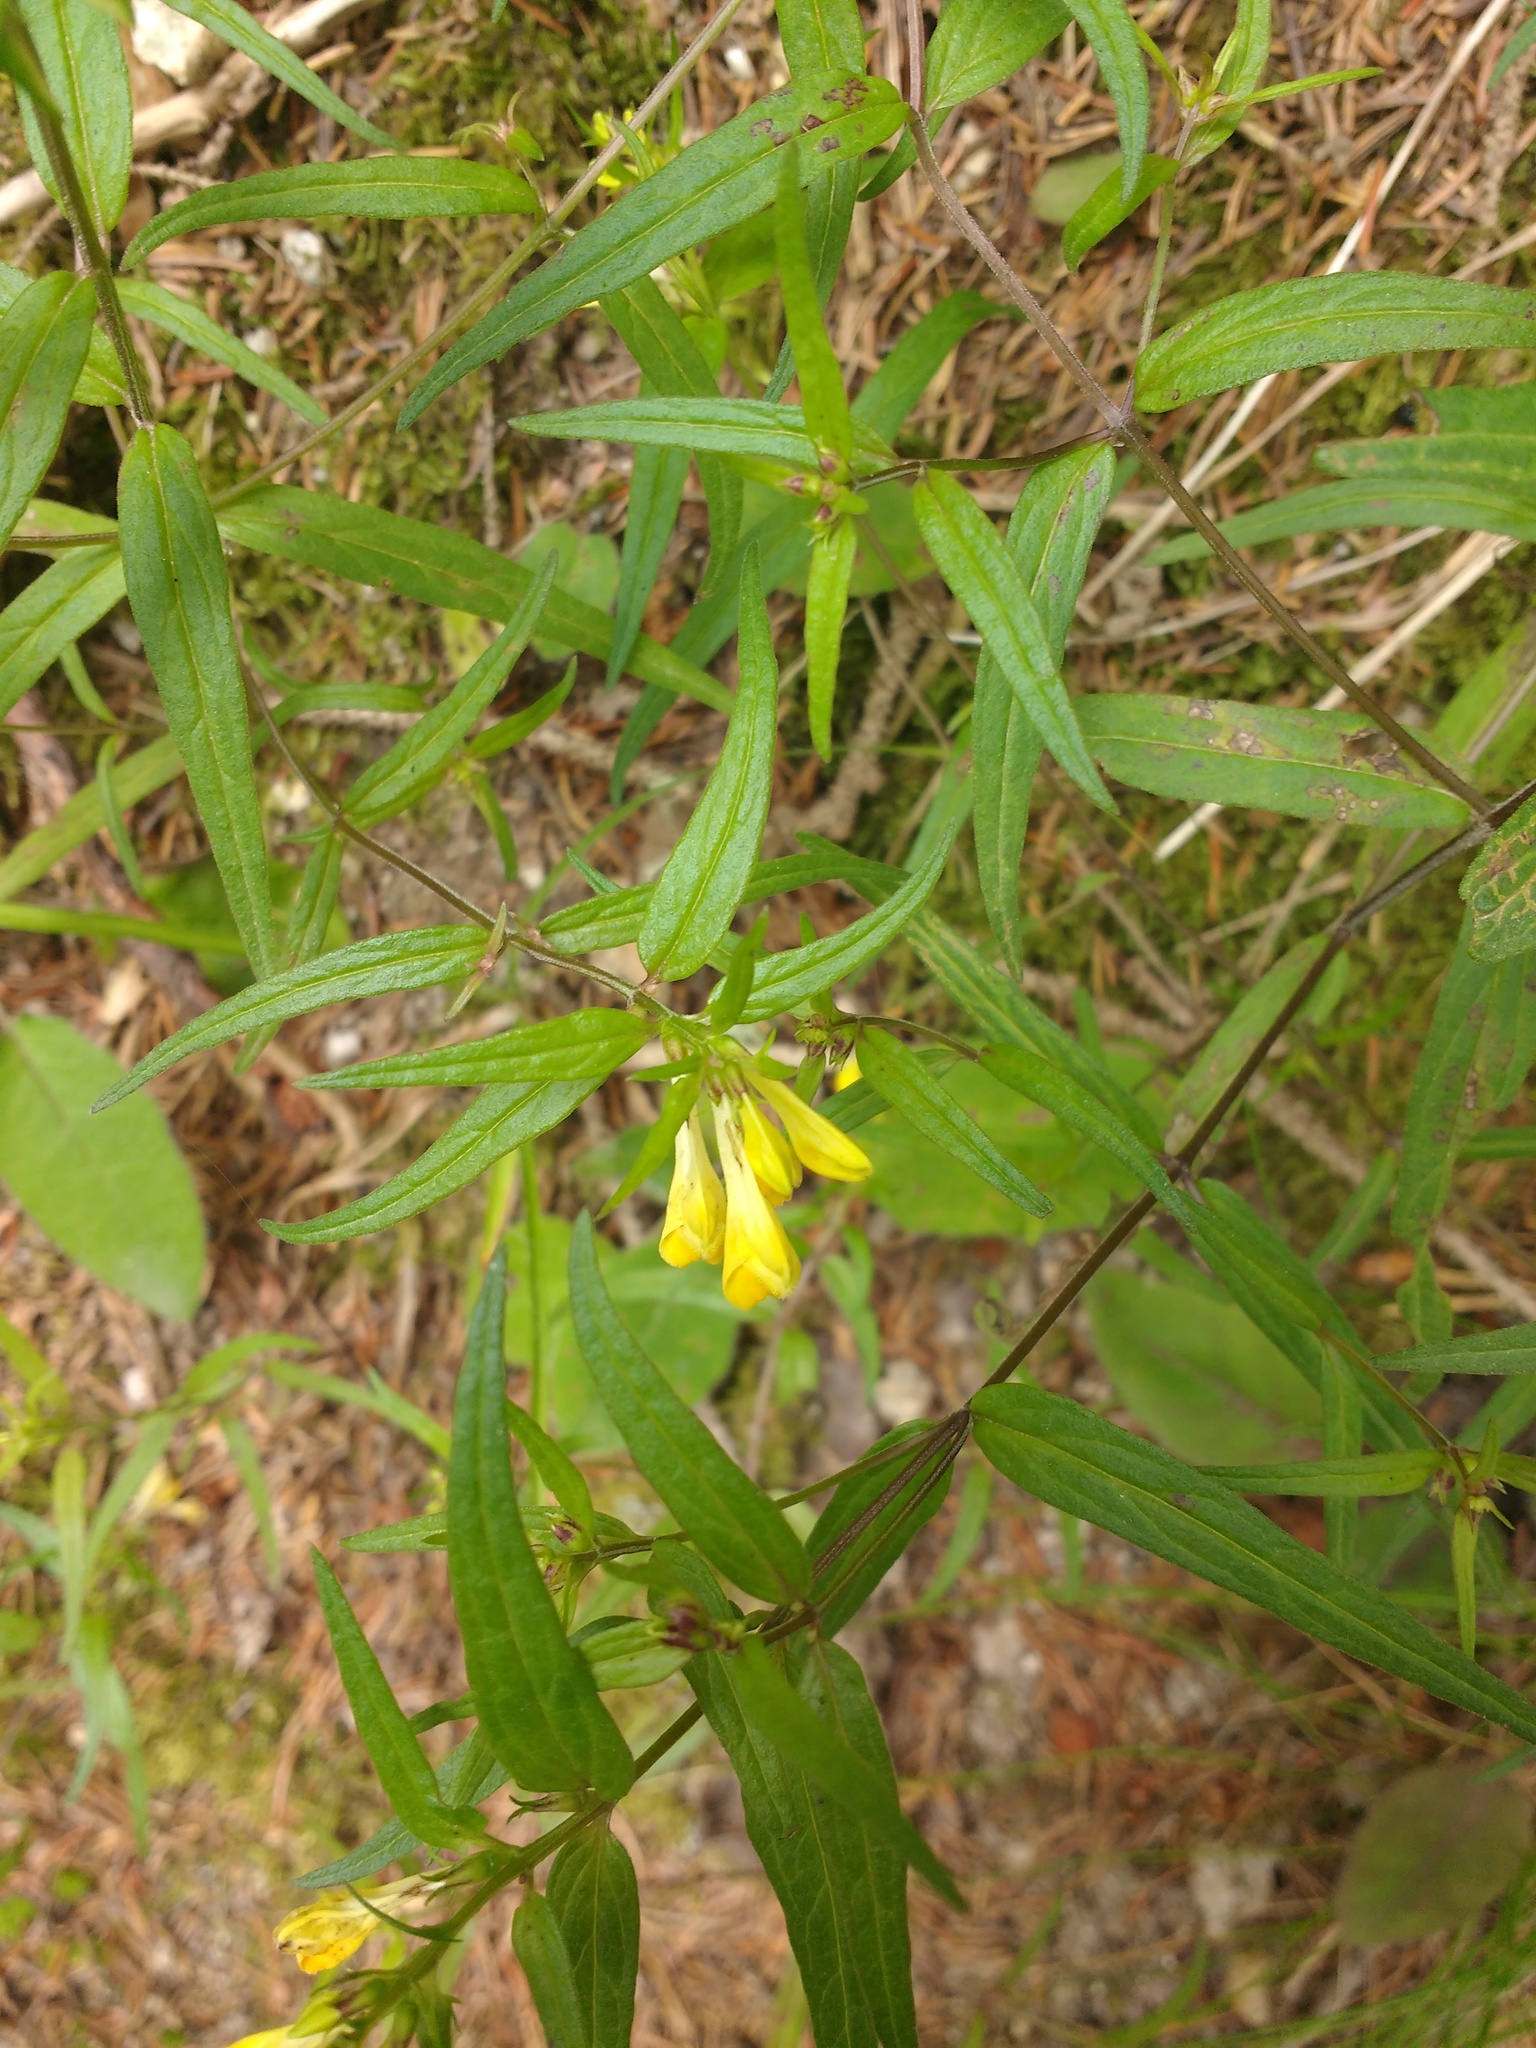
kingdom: Plantae
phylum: Tracheophyta
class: Magnoliopsida
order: Lamiales
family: Orobanchaceae
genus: Melampyrum
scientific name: Melampyrum pratense
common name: Common cow-wheat
